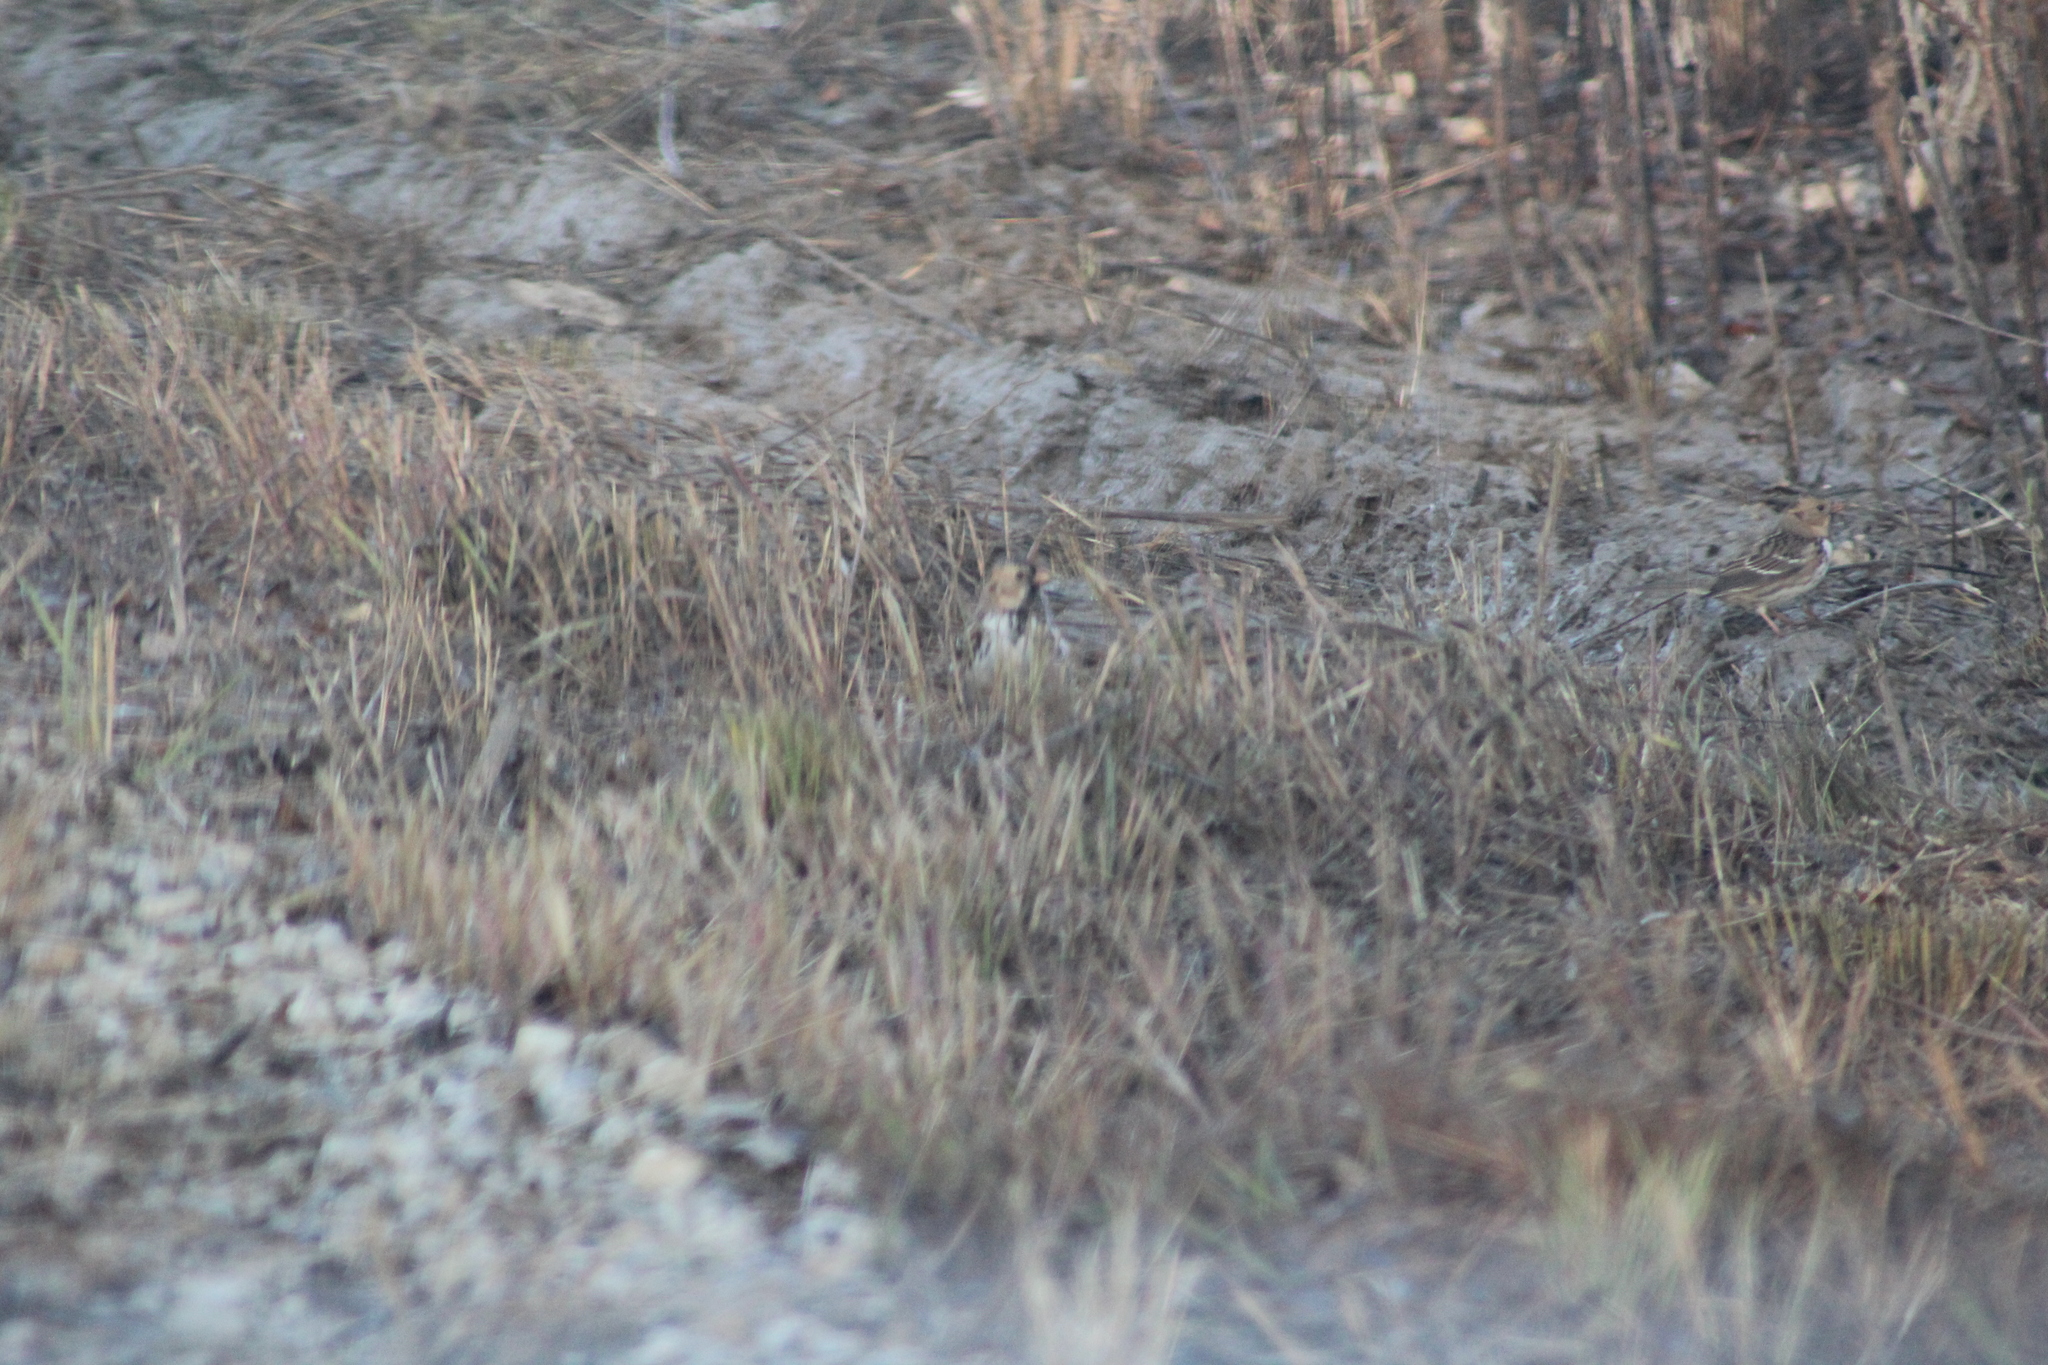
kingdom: Animalia
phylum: Chordata
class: Aves
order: Passeriformes
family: Passerellidae
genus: Zonotrichia
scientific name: Zonotrichia querula
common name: Harris's sparrow
